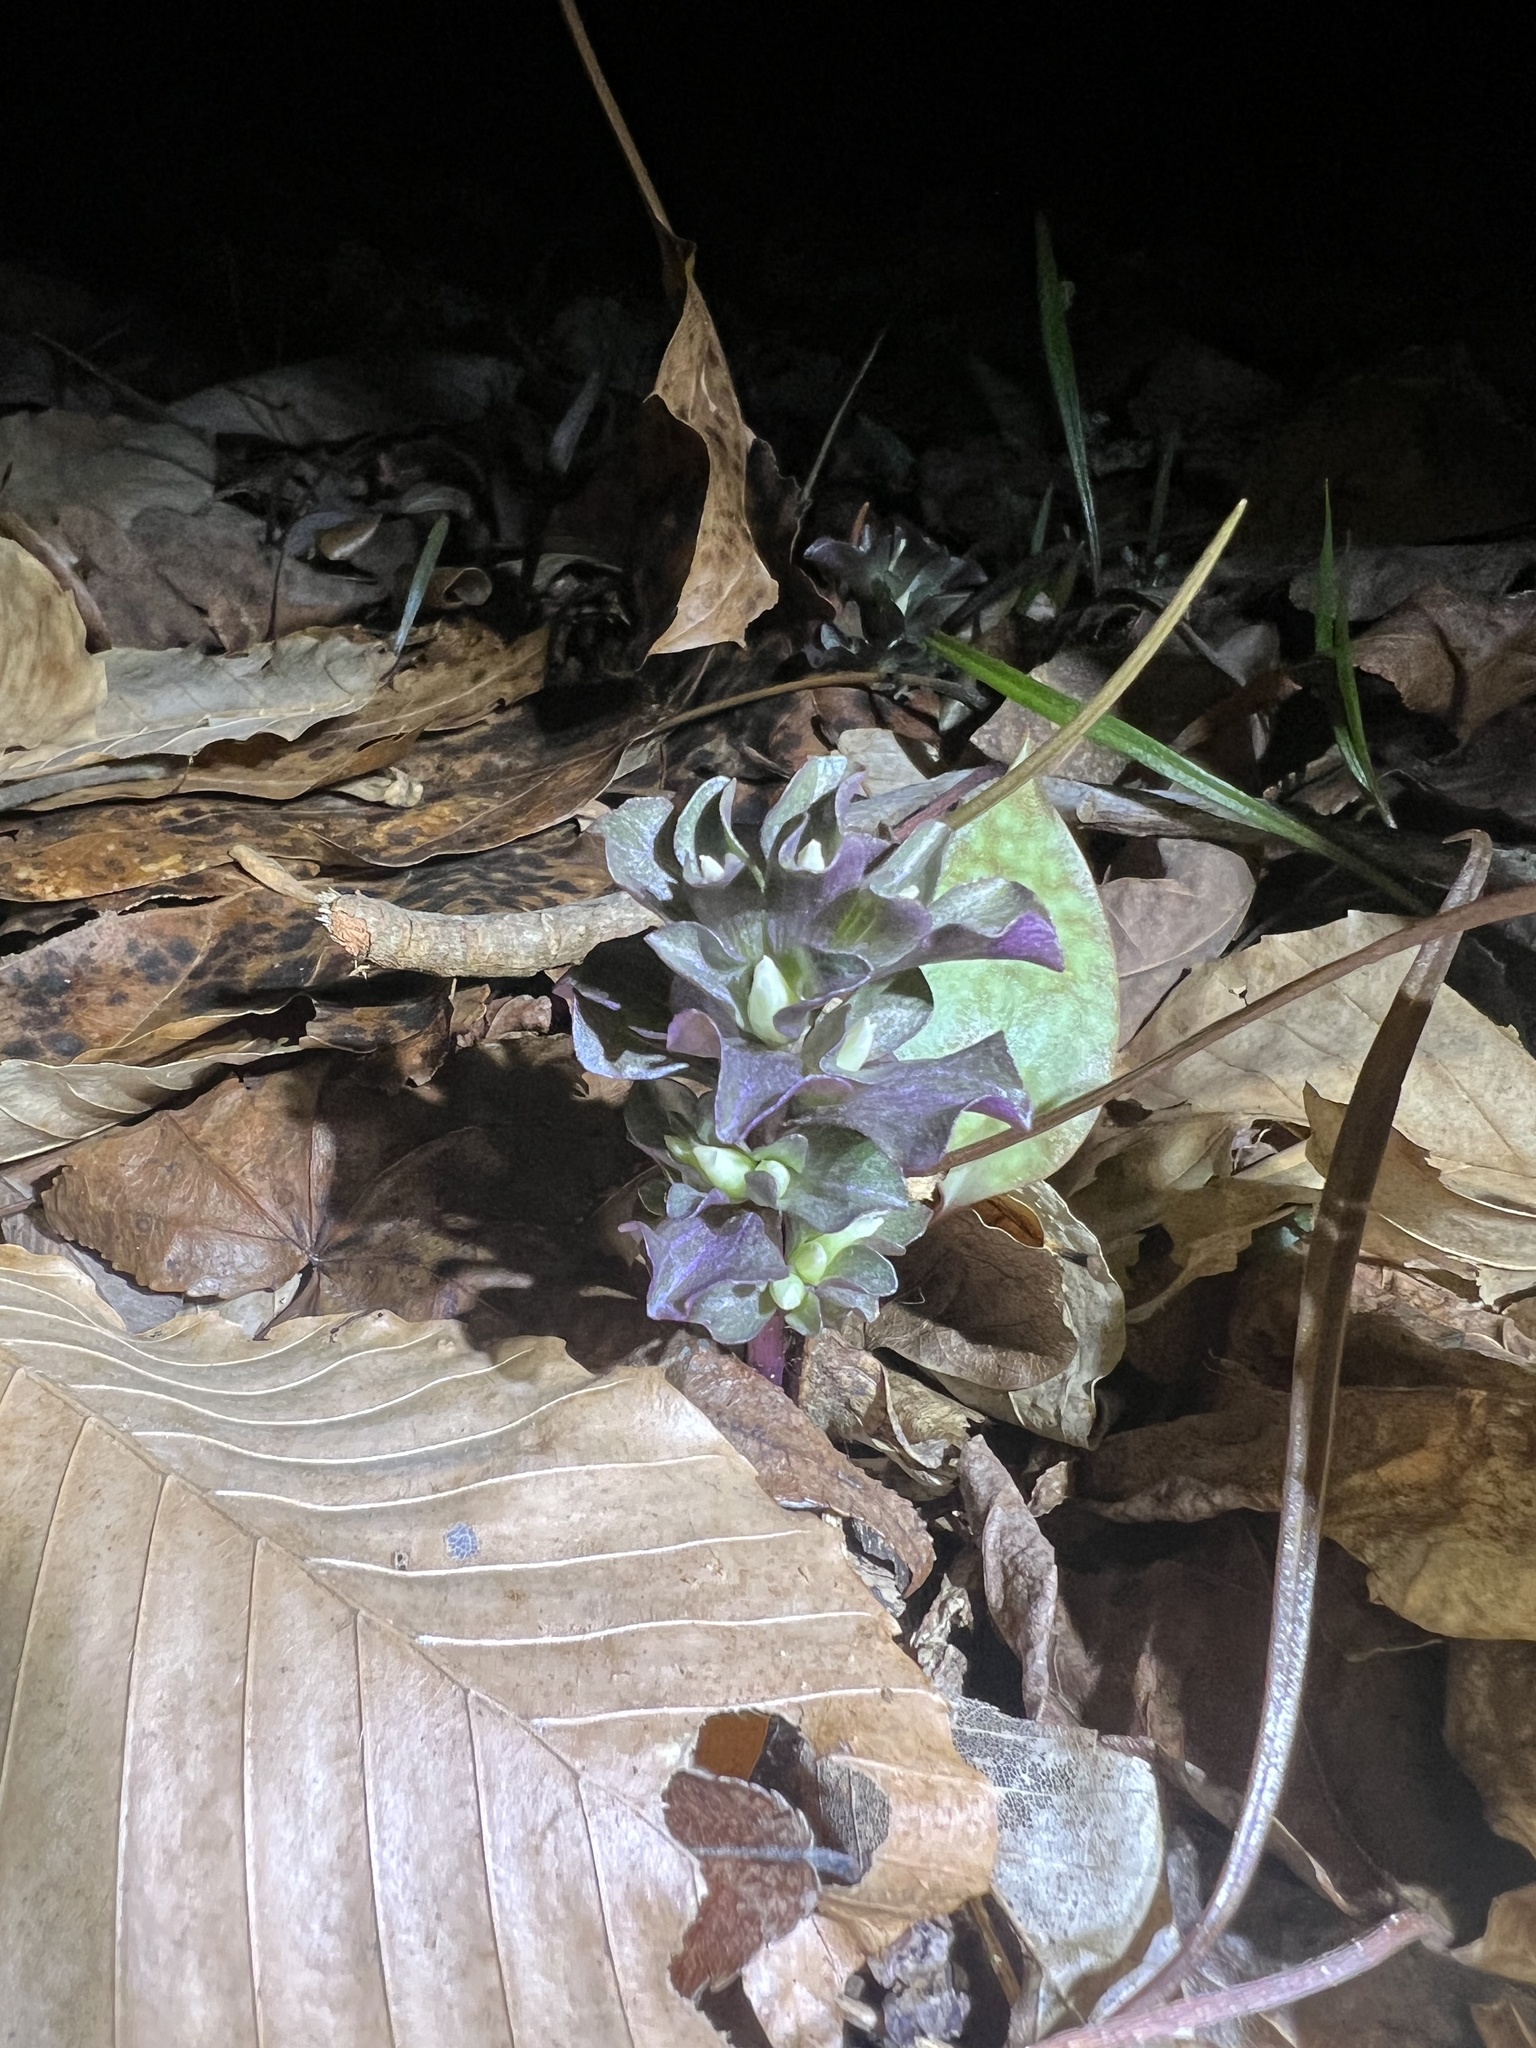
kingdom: Plantae
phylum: Tracheophyta
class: Magnoliopsida
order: Gentianales
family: Gentianaceae
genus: Obolaria
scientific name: Obolaria virginica
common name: Pennywort
